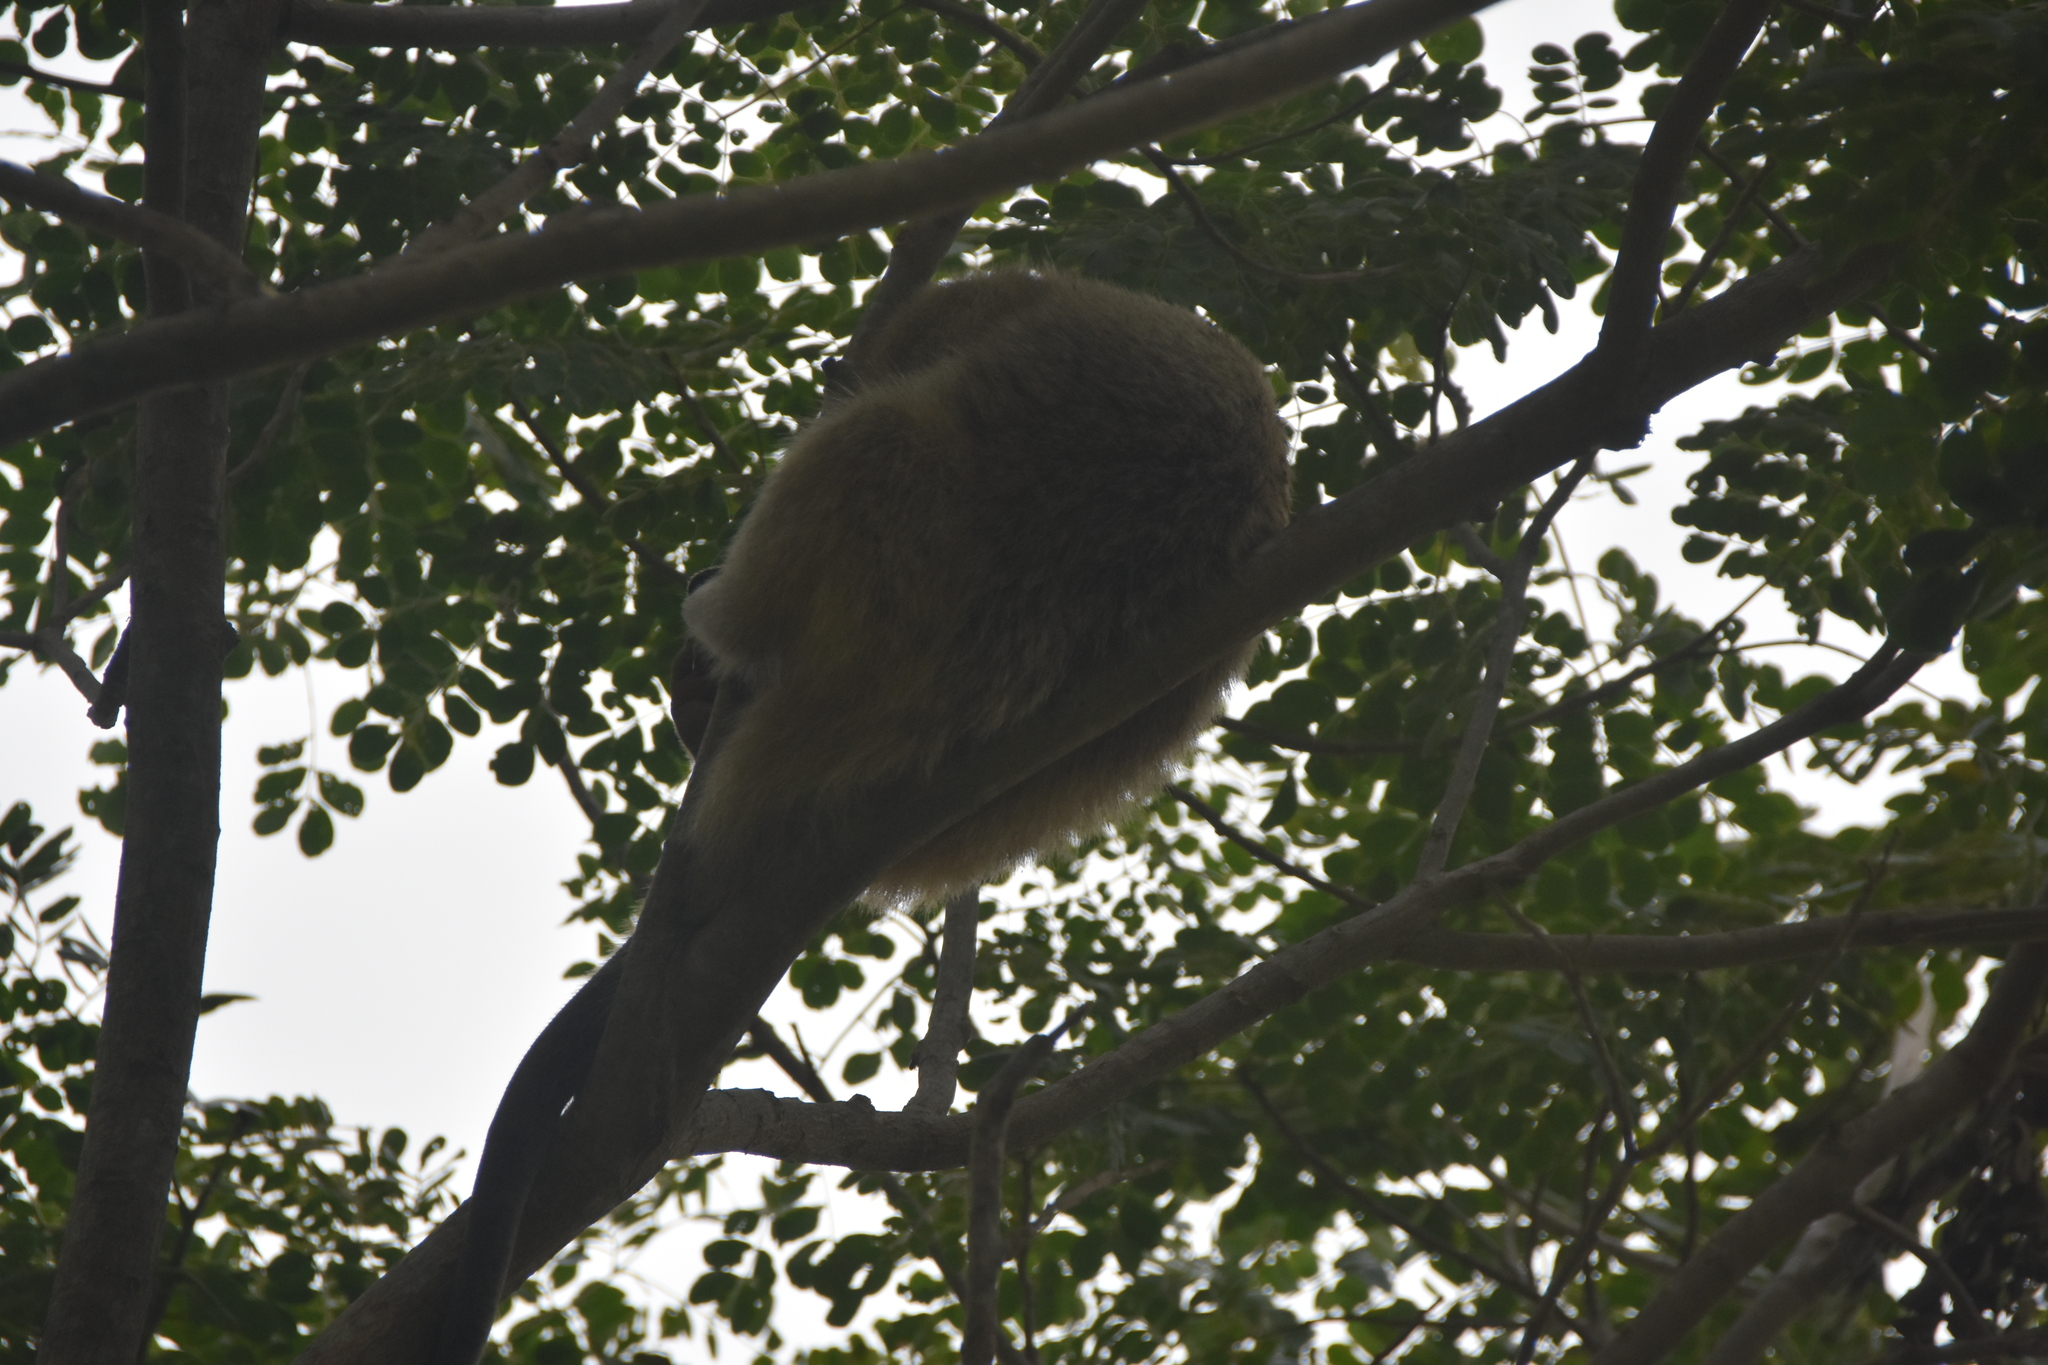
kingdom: Animalia
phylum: Chordata
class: Mammalia
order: Pilosa
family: Myrmecophagidae
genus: Tamandua
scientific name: Tamandua tetradactyla
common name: Southern tamandua
